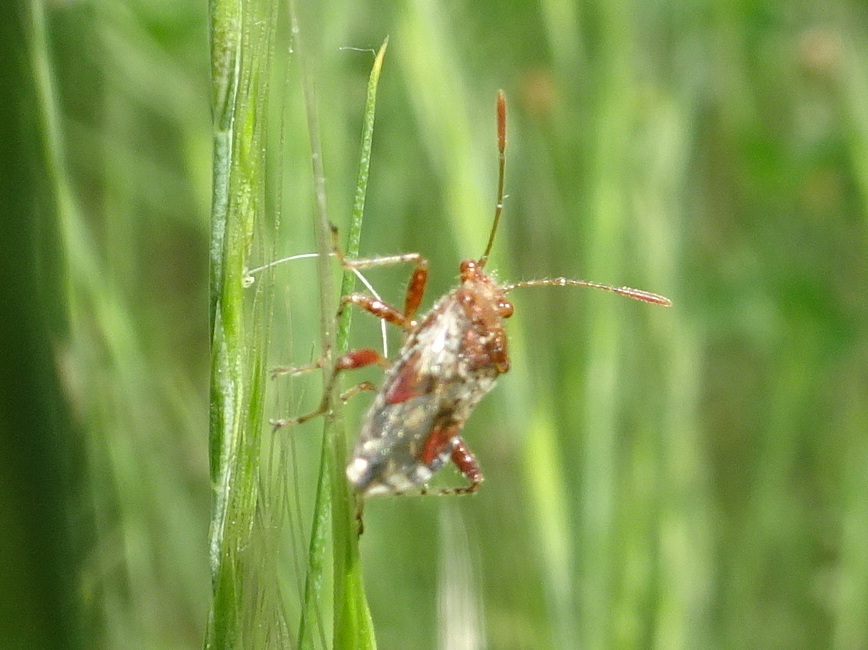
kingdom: Animalia
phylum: Arthropoda
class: Insecta
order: Hemiptera
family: Rhopalidae
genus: Rhopalus
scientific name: Rhopalus subrufus
